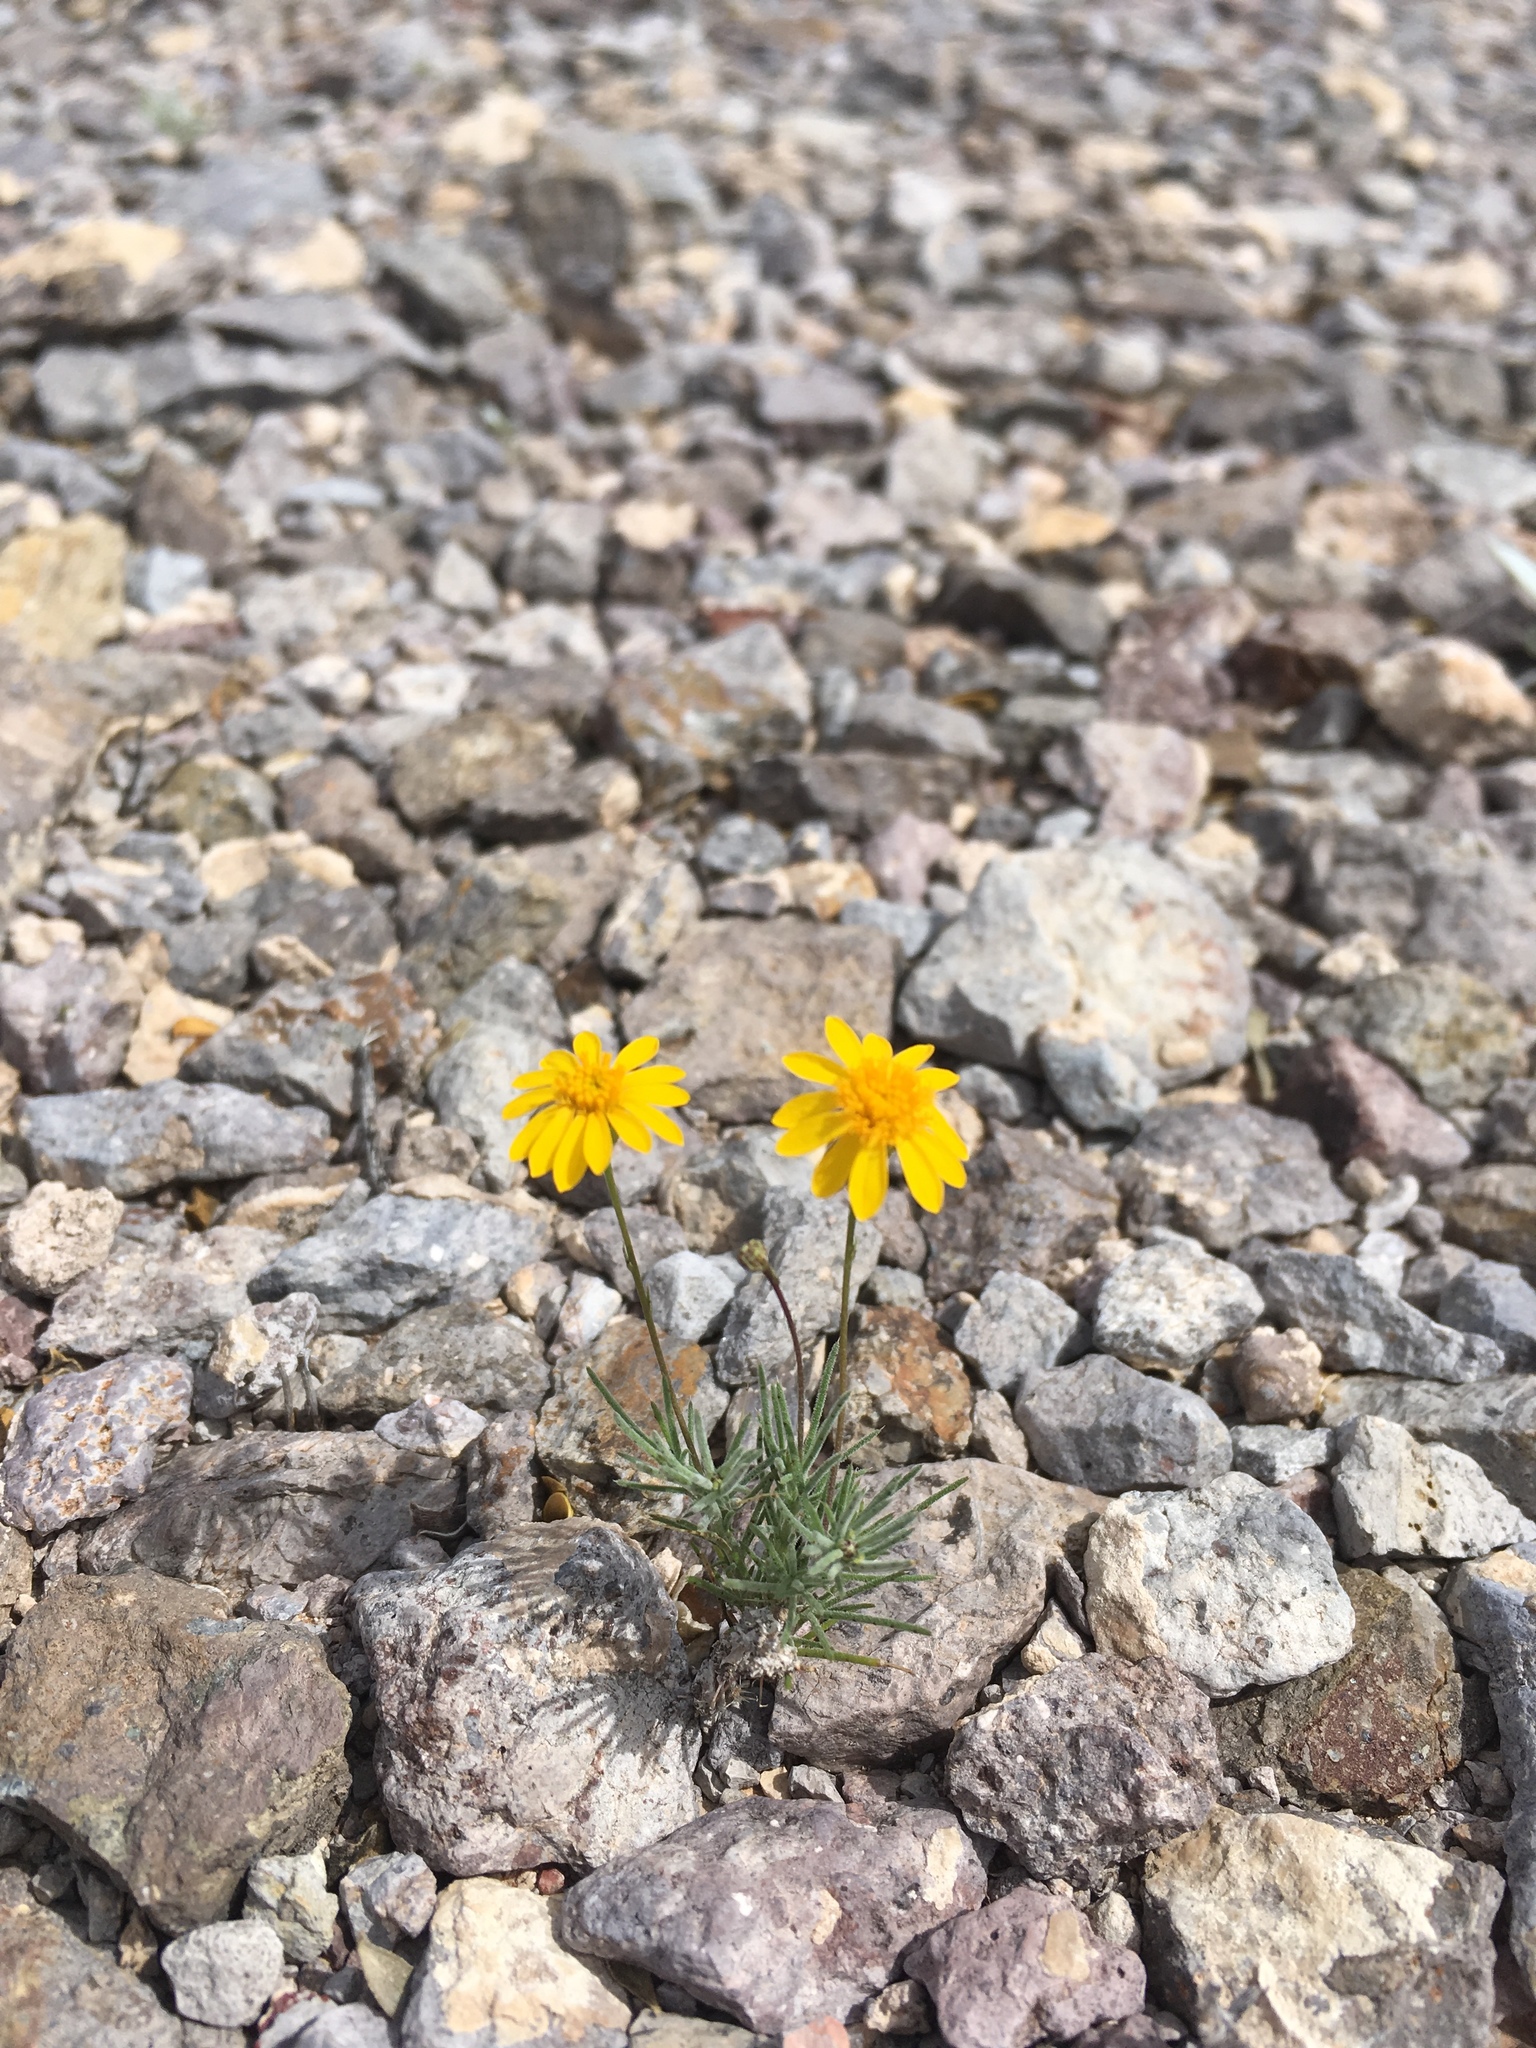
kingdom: Plantae
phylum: Tracheophyta
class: Magnoliopsida
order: Asterales
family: Asteraceae
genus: Thymophylla
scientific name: Thymophylla pentachaeta
